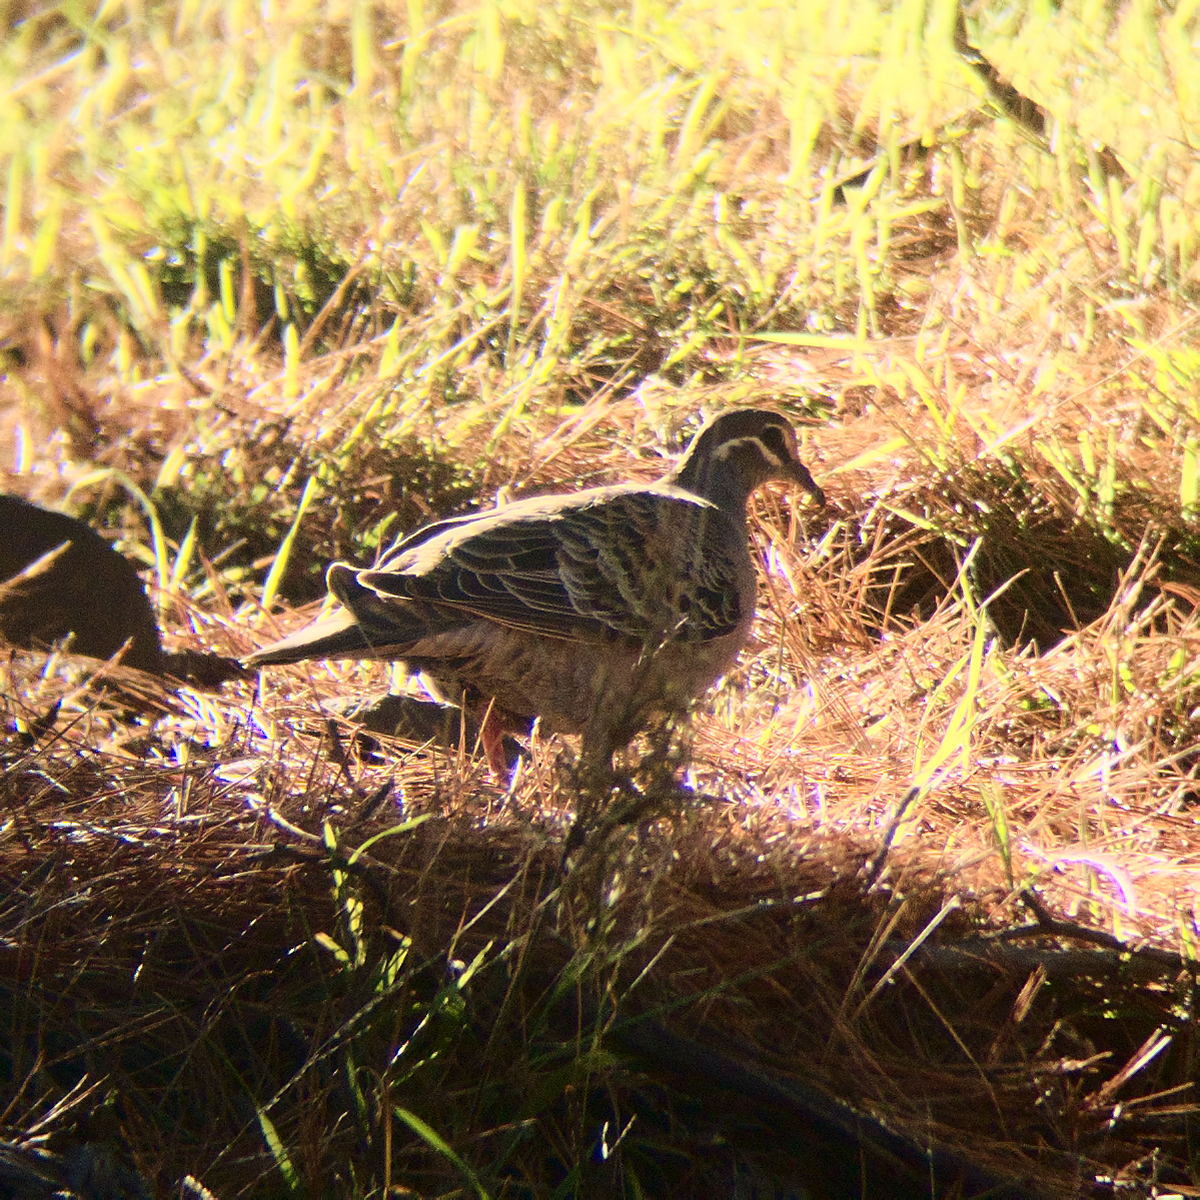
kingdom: Animalia
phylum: Chordata
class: Aves
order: Columbiformes
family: Columbidae
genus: Phaps
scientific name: Phaps chalcoptera
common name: Common bronzewing
